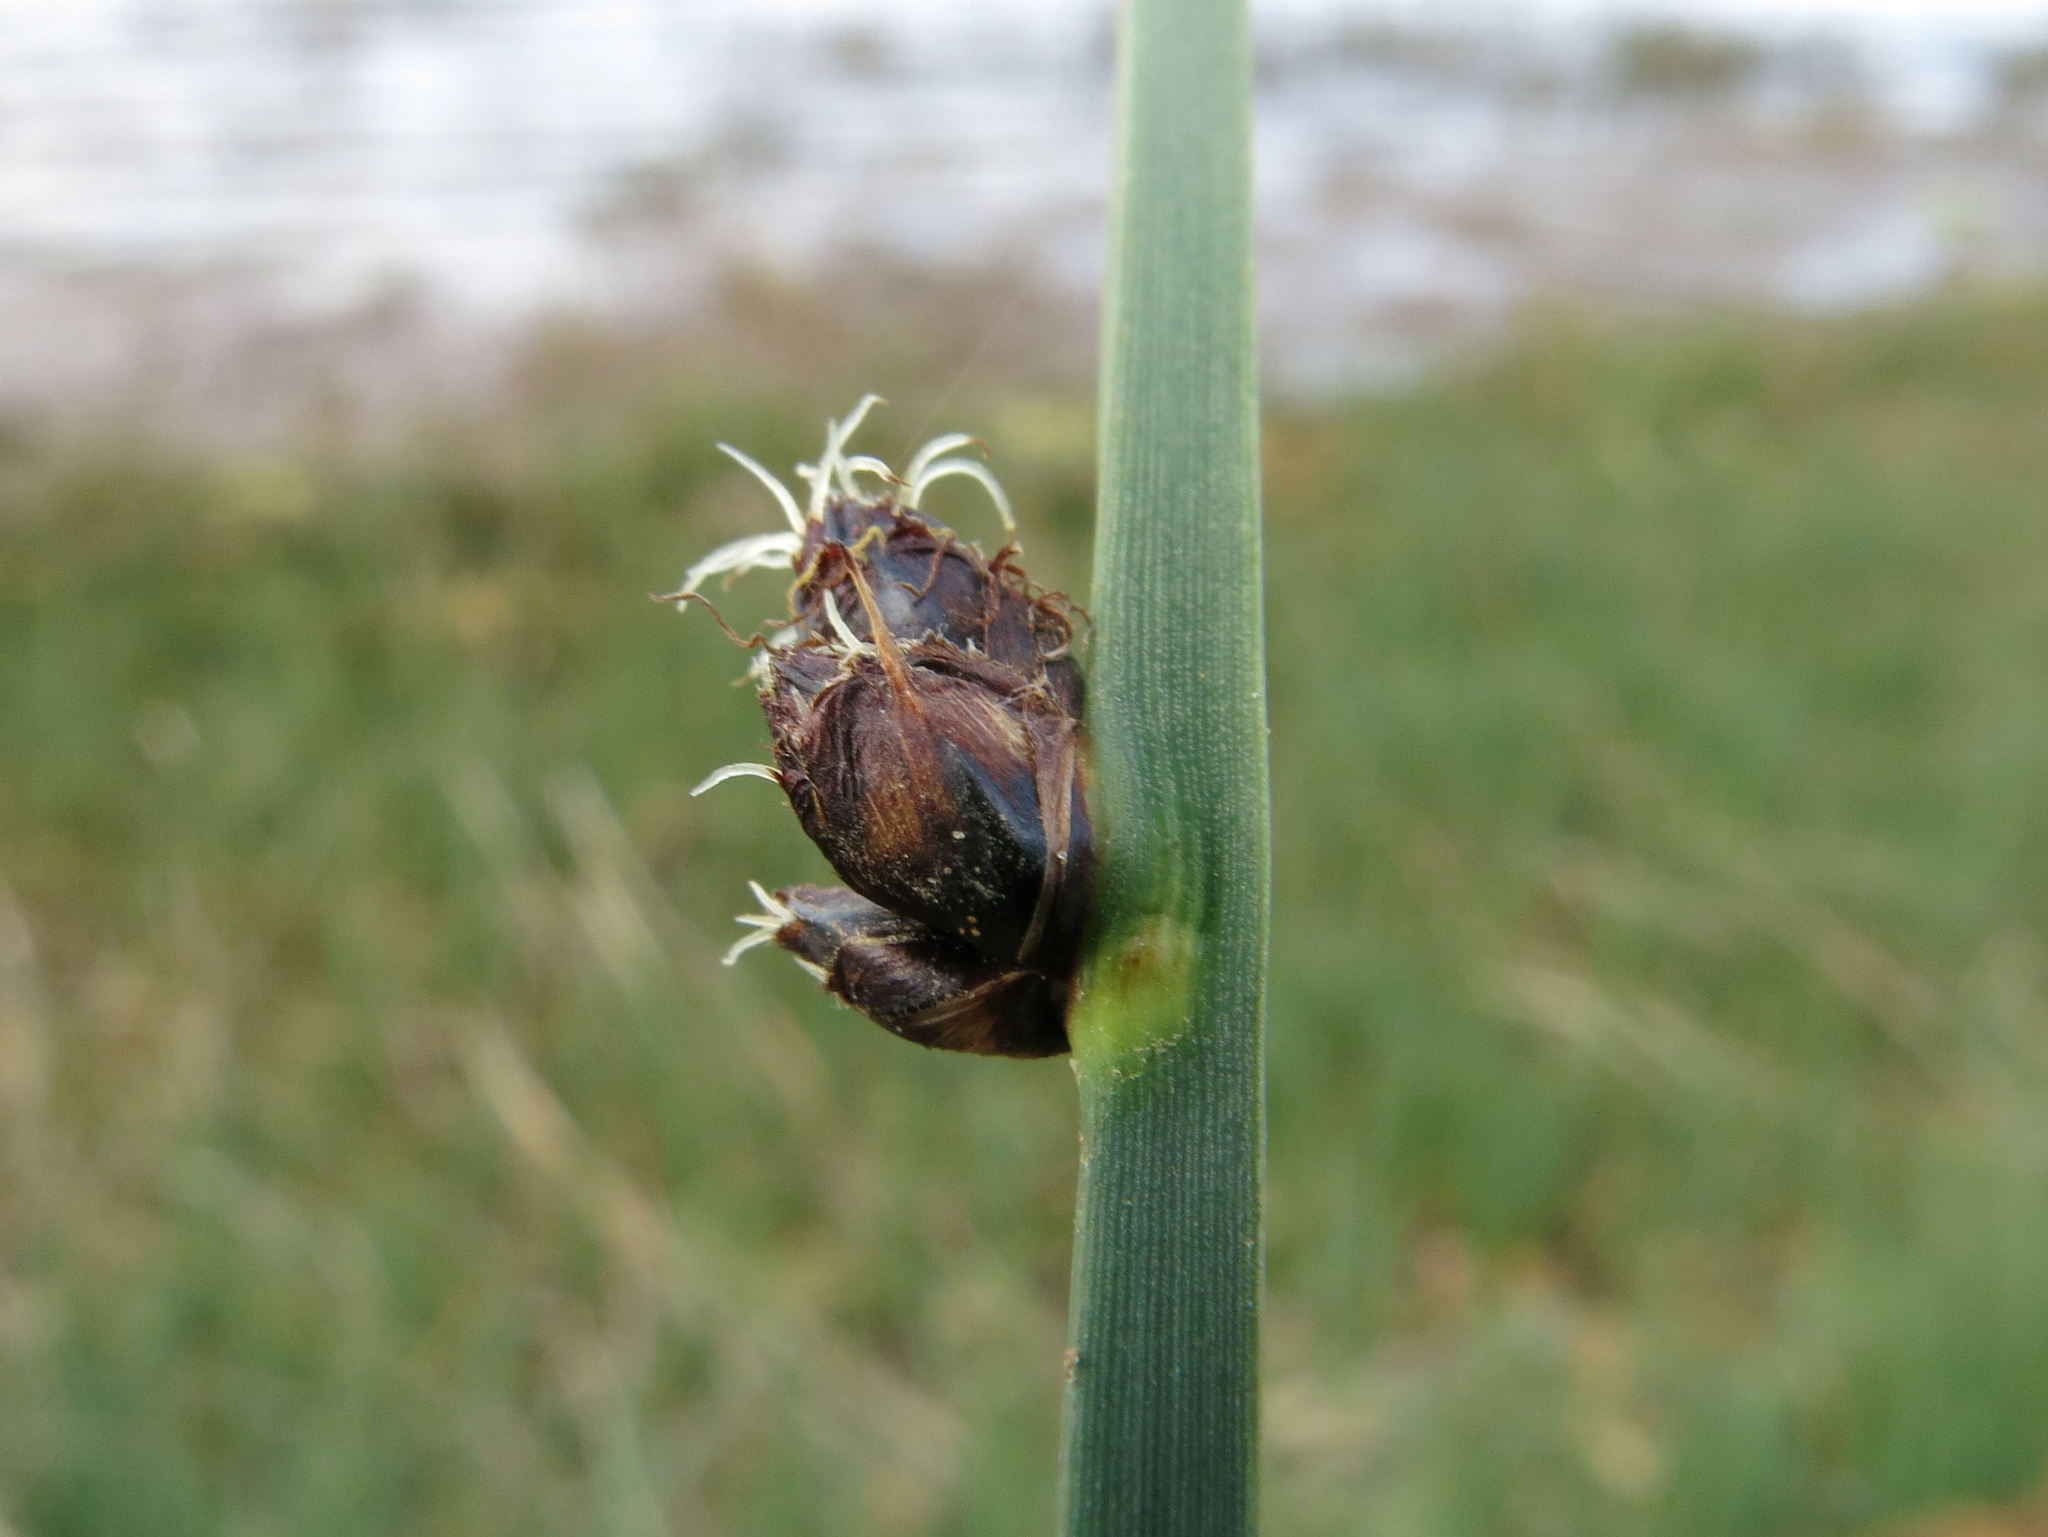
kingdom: Plantae
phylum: Tracheophyta
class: Liliopsida
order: Poales
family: Cyperaceae
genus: Schoenoplectus
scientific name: Schoenoplectus pungens
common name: Sharp club-rush
